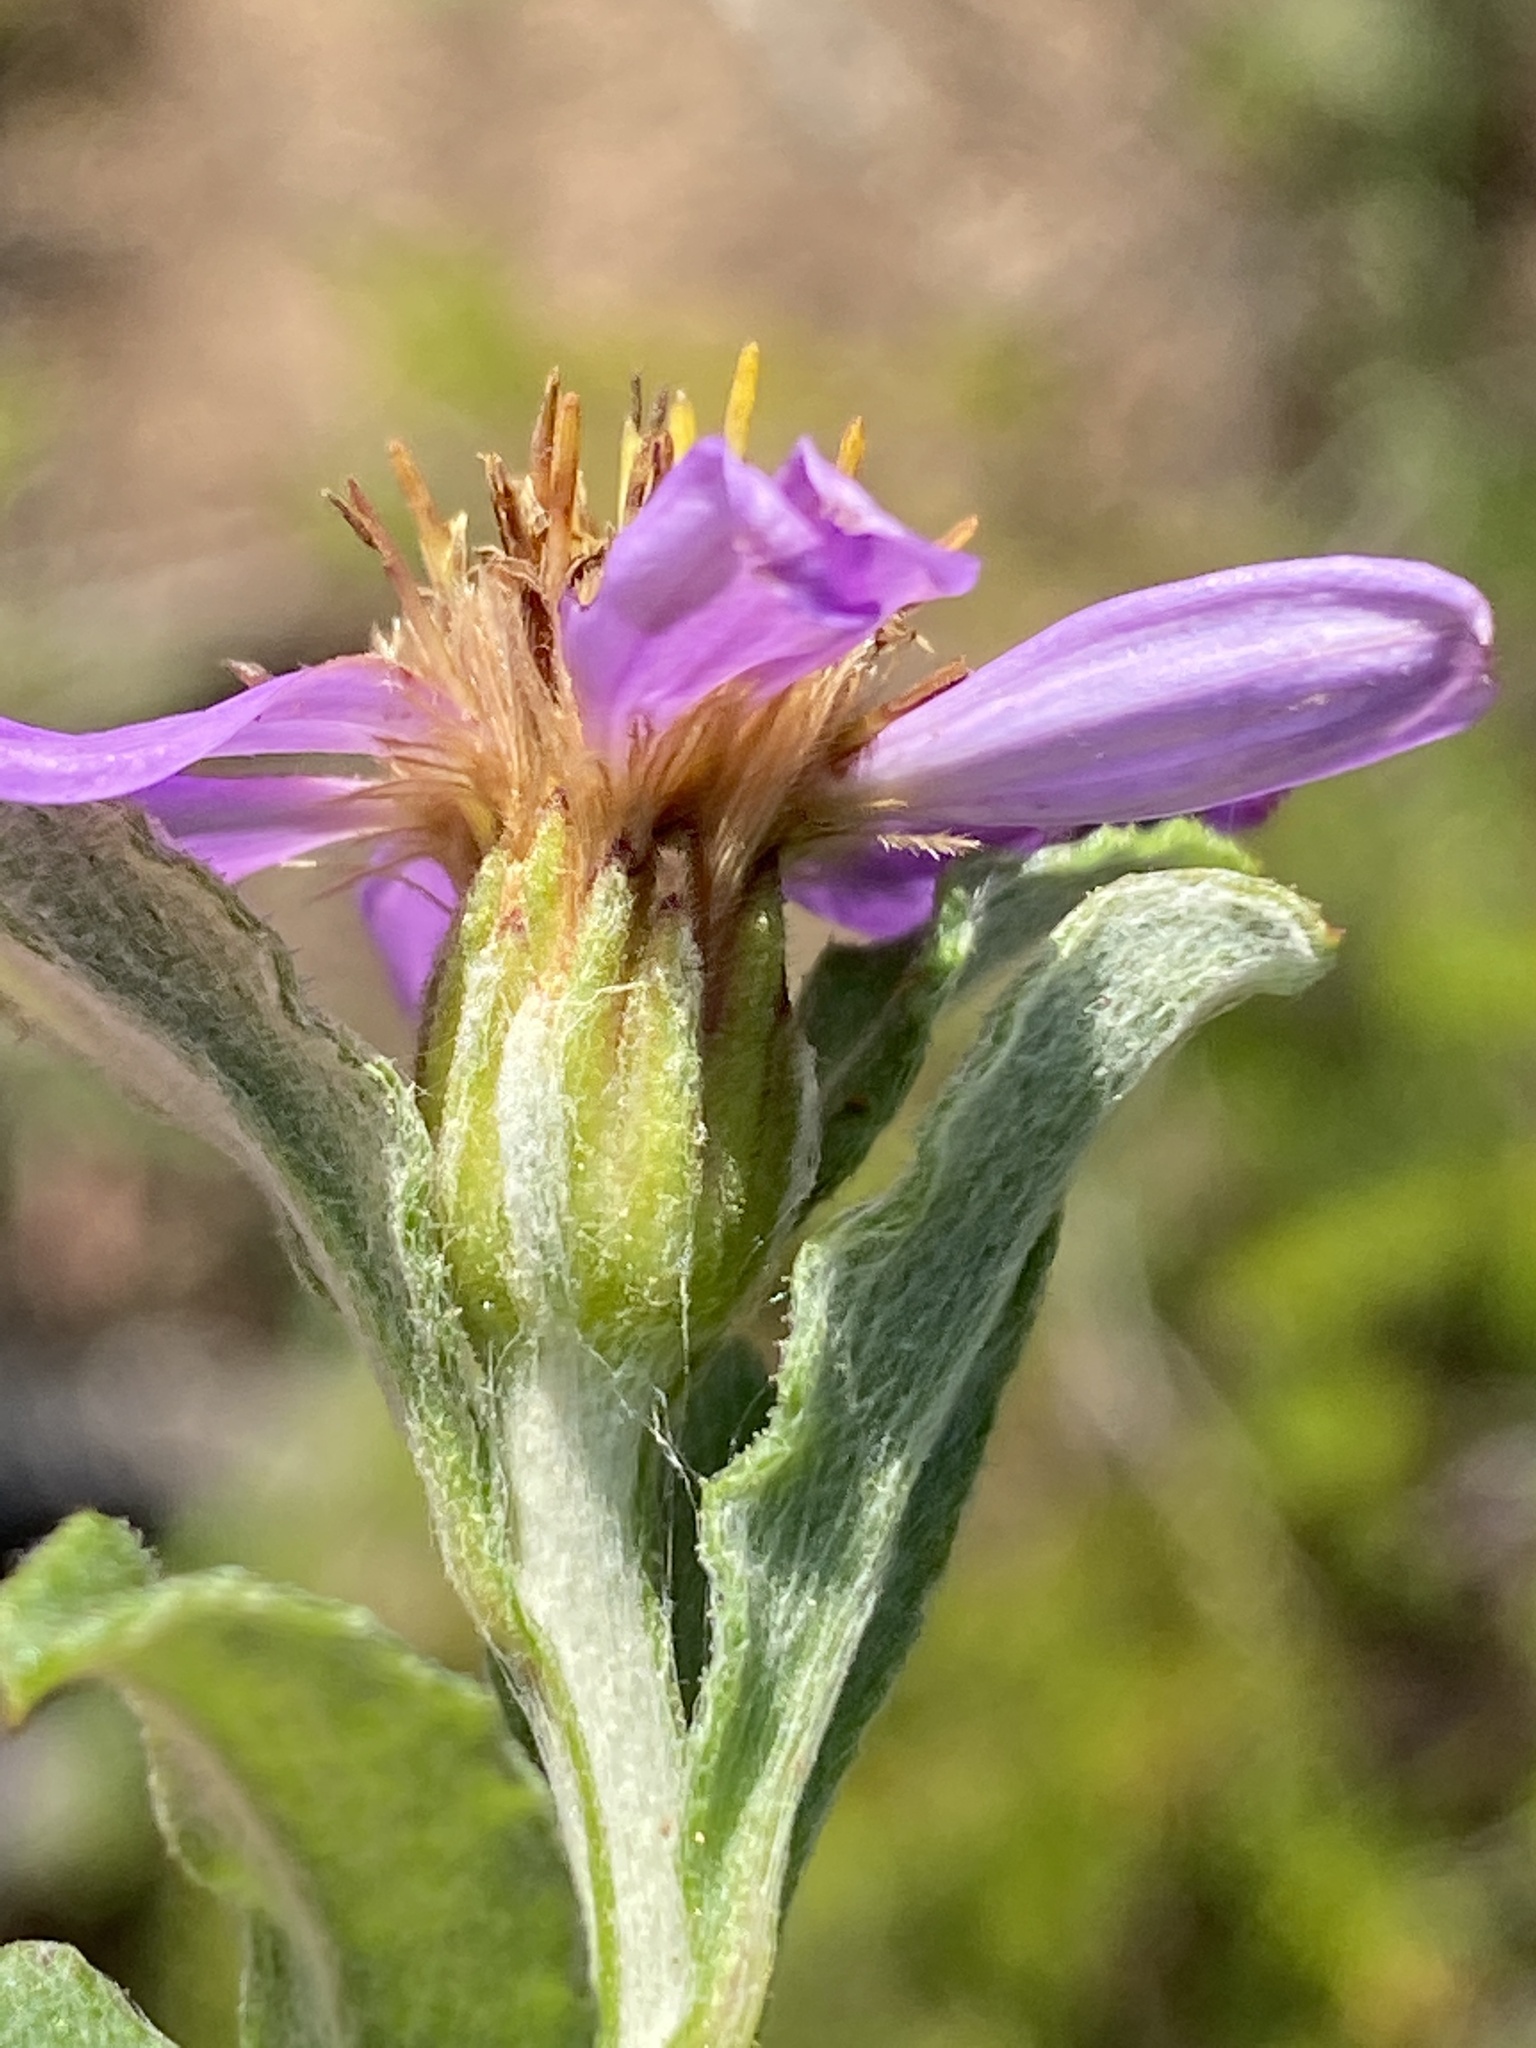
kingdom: Plantae
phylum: Tracheophyta
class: Magnoliopsida
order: Asterales
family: Asteraceae
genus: Printzia
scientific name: Printzia polifolia
